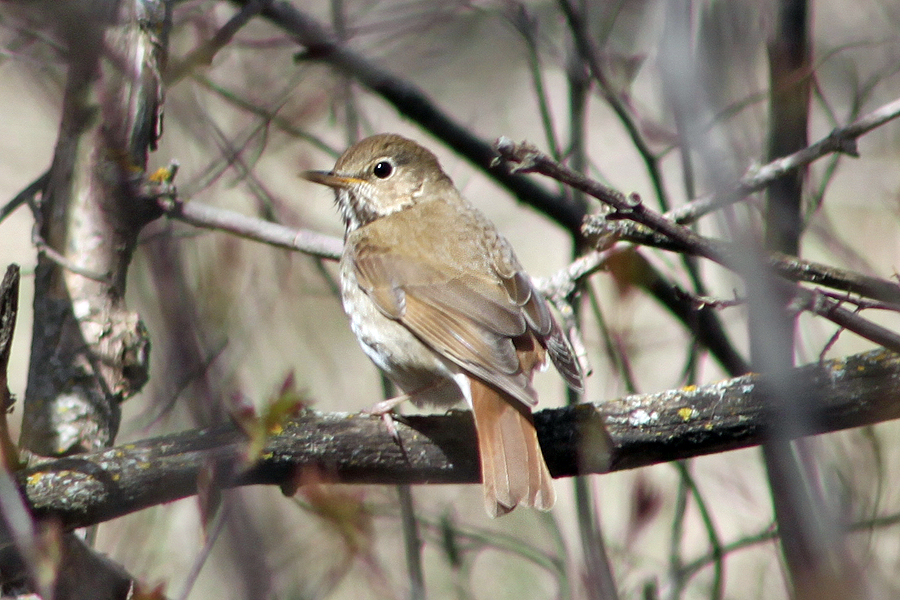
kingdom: Animalia
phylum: Chordata
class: Aves
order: Passeriformes
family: Turdidae
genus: Catharus
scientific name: Catharus guttatus
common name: Hermit thrush
